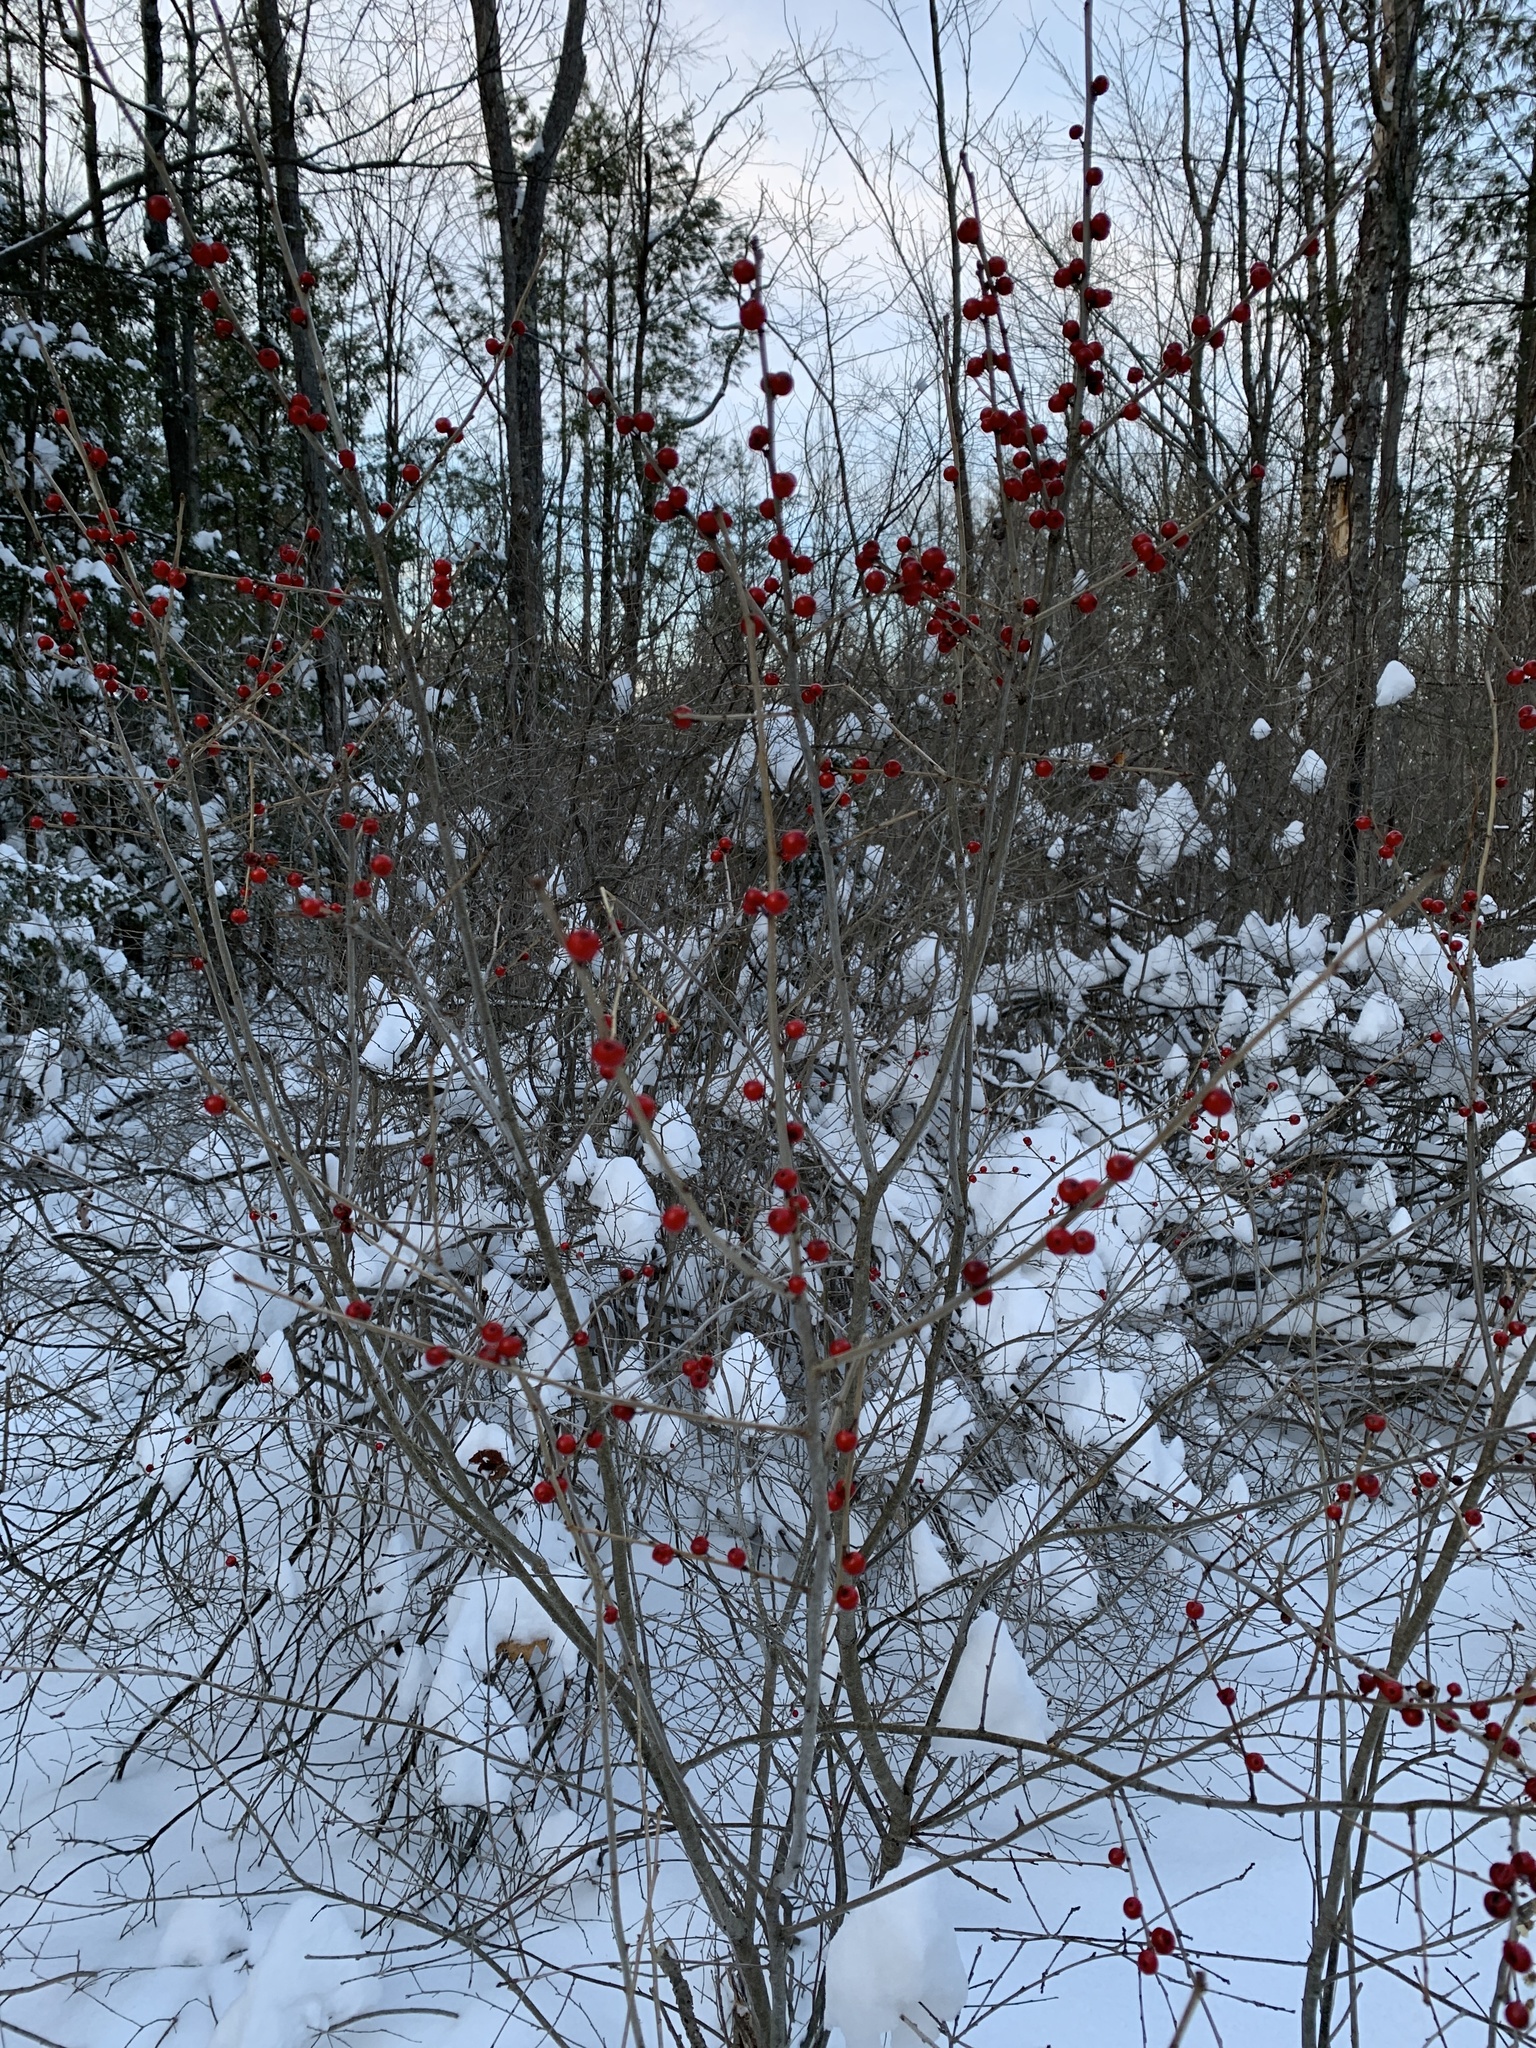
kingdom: Plantae
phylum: Tracheophyta
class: Magnoliopsida
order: Aquifoliales
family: Aquifoliaceae
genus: Ilex
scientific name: Ilex verticillata
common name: Virginia winterberry
